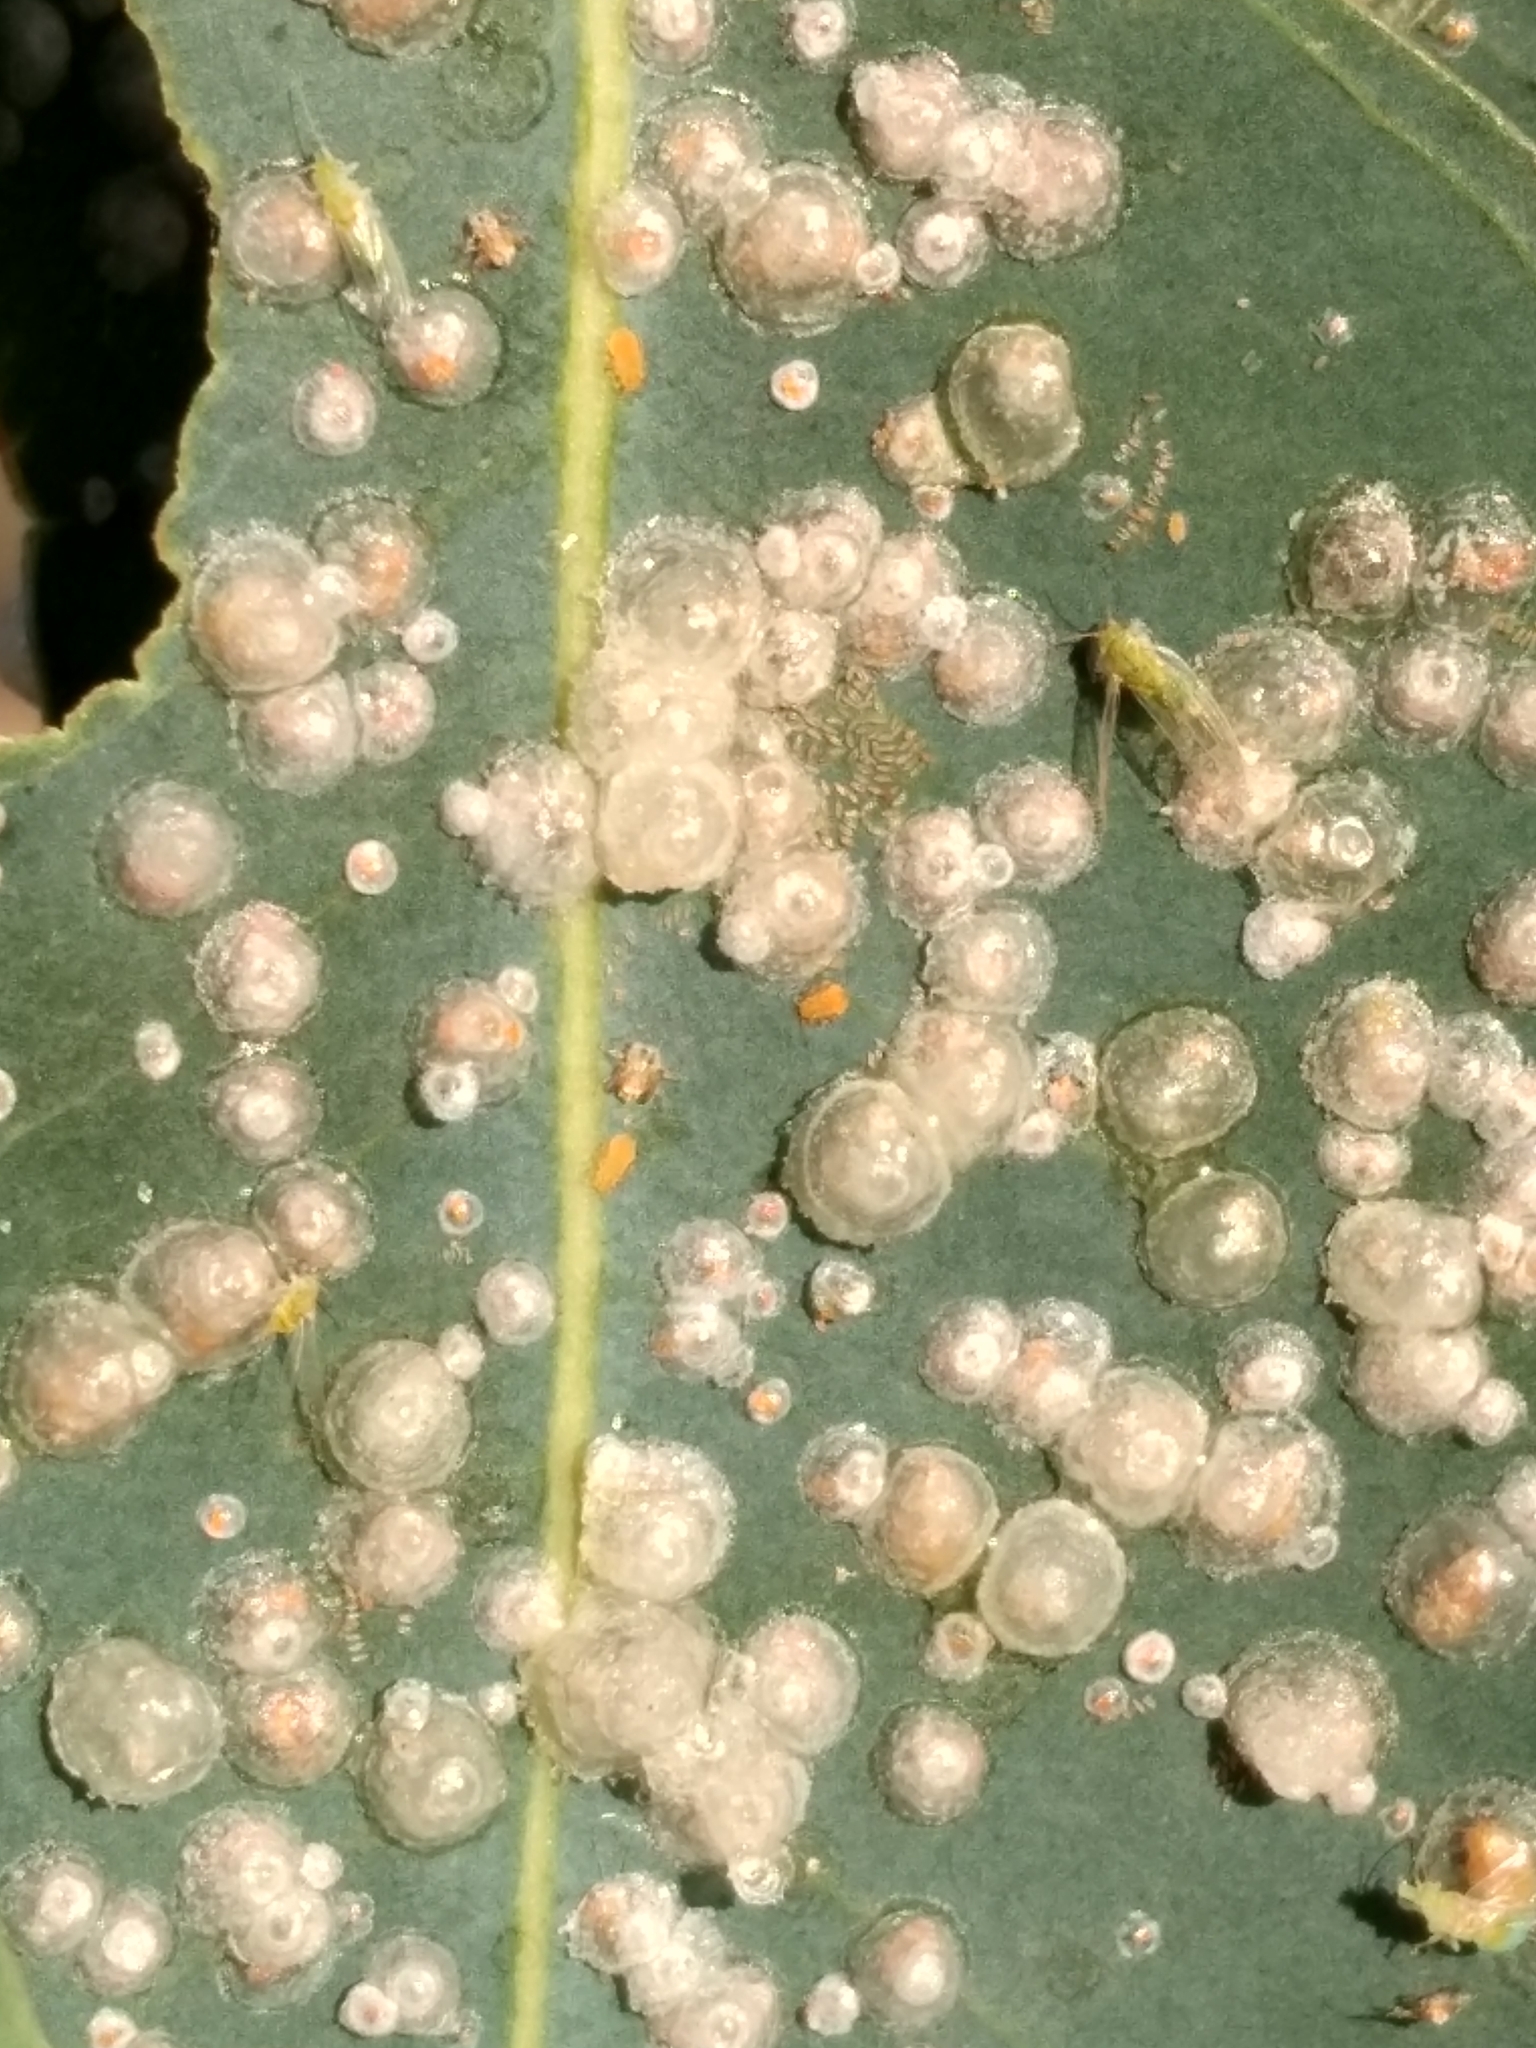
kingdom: Animalia
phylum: Arthropoda
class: Insecta
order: Hemiptera
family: Aphalaridae
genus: Glycaspis
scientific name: Glycaspis brimblecombei
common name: Red gum lerp psyllid
